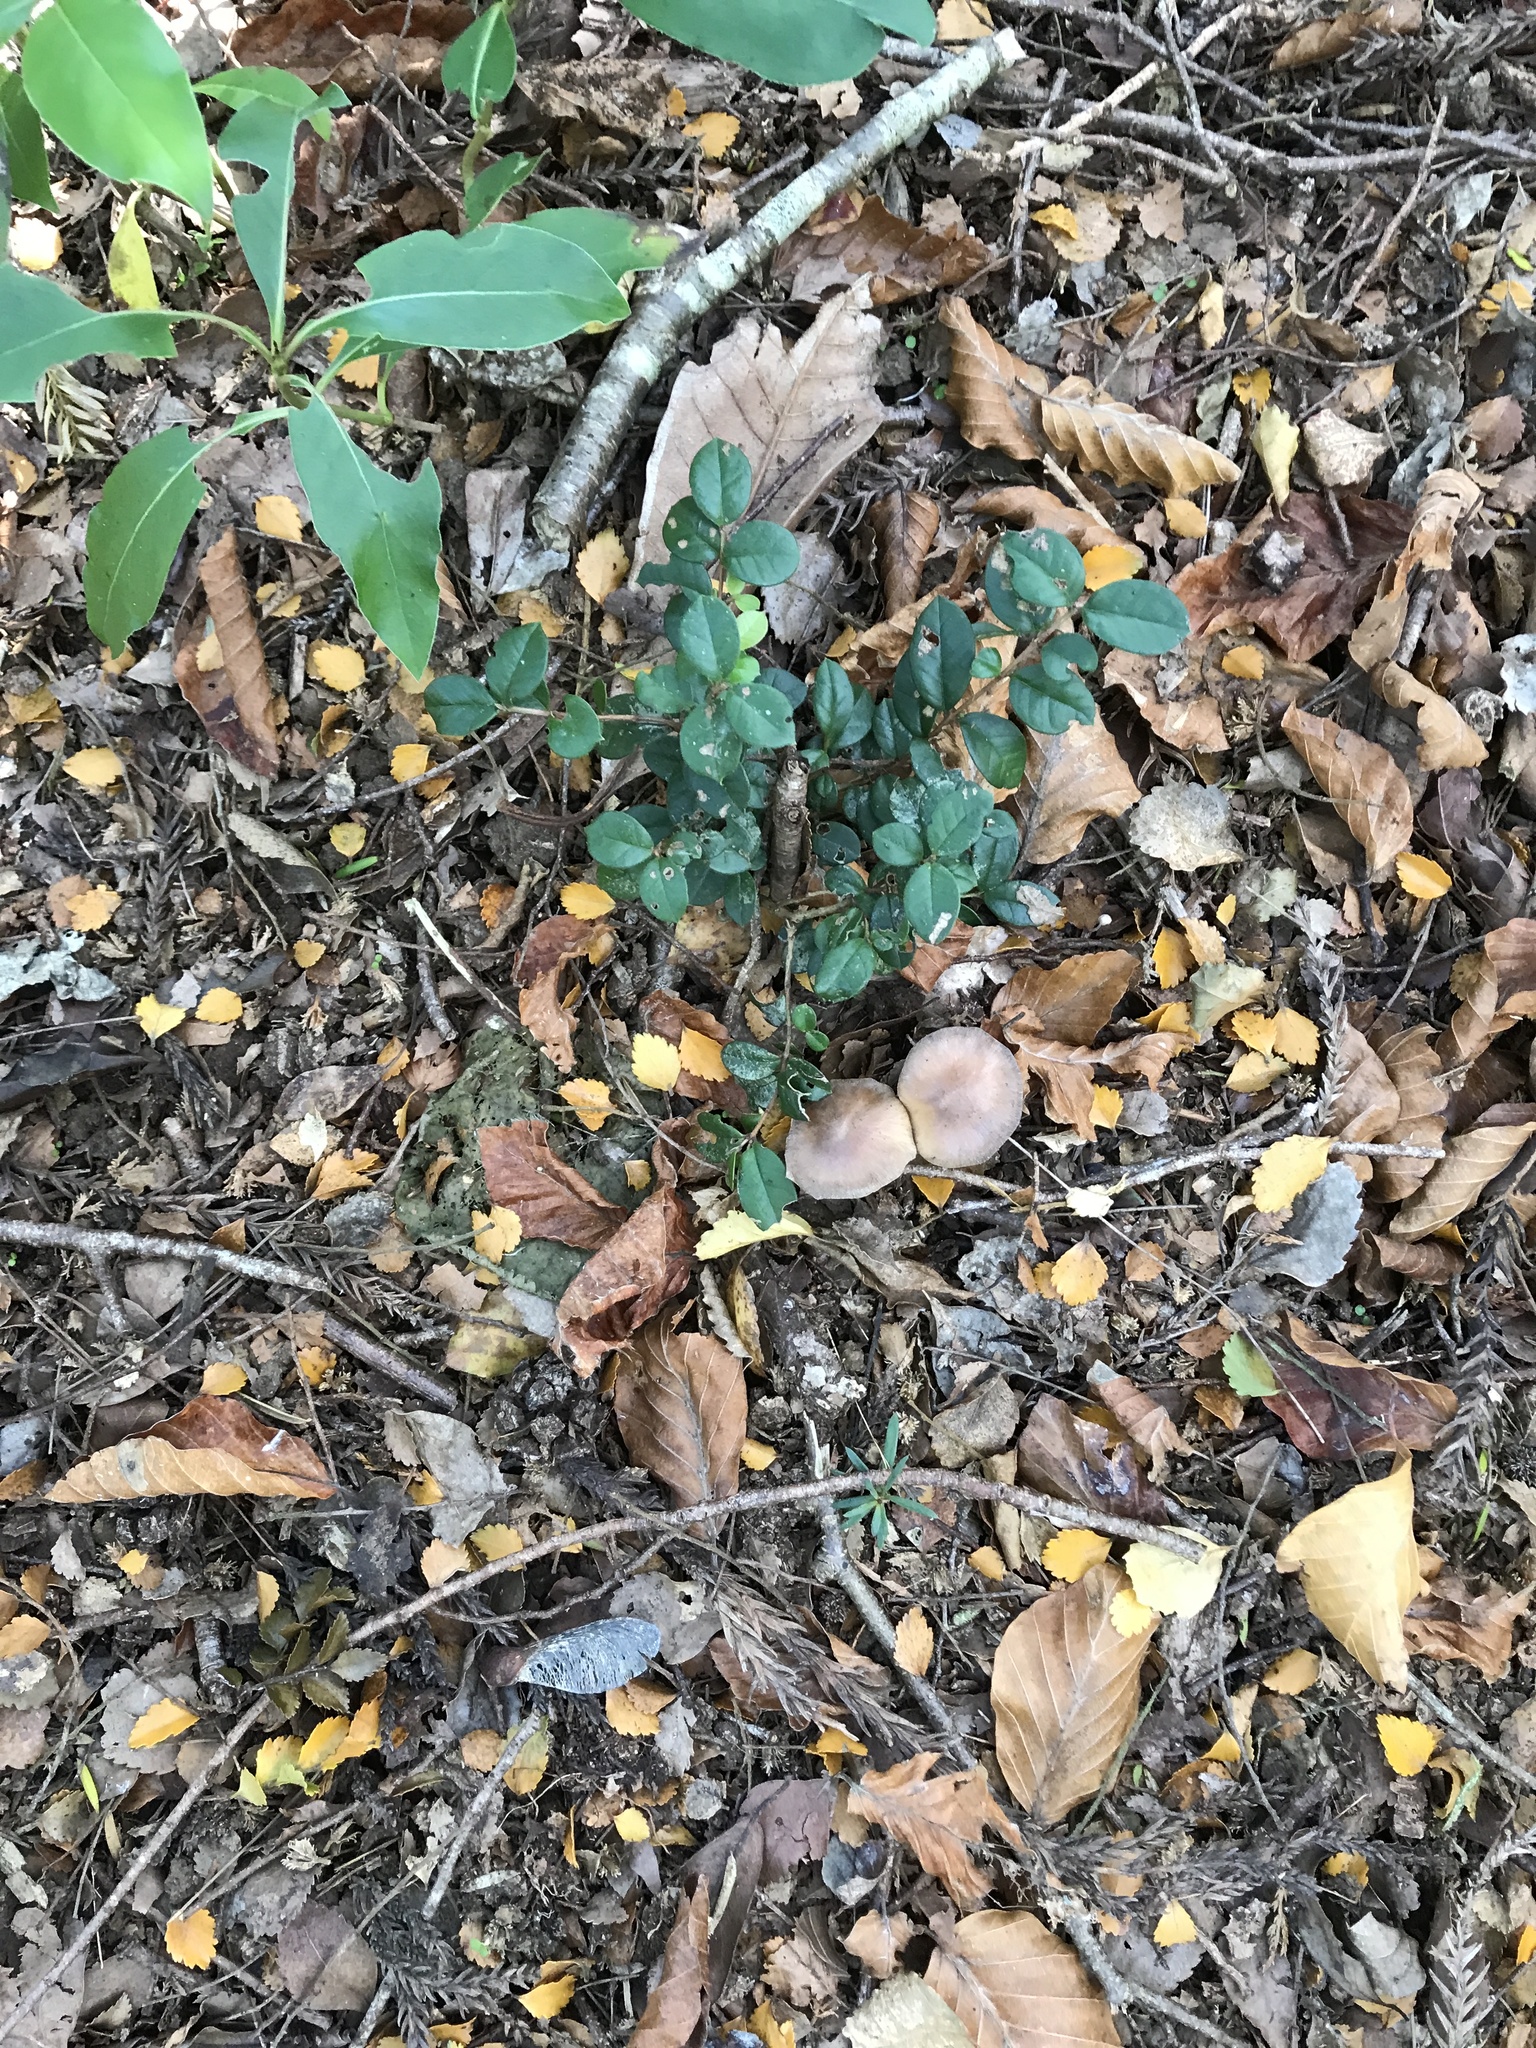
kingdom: Plantae
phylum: Tracheophyta
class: Magnoliopsida
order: Myrtales
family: Myrtaceae
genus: Luma
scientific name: Luma apiculata
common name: Chilean myrtle
